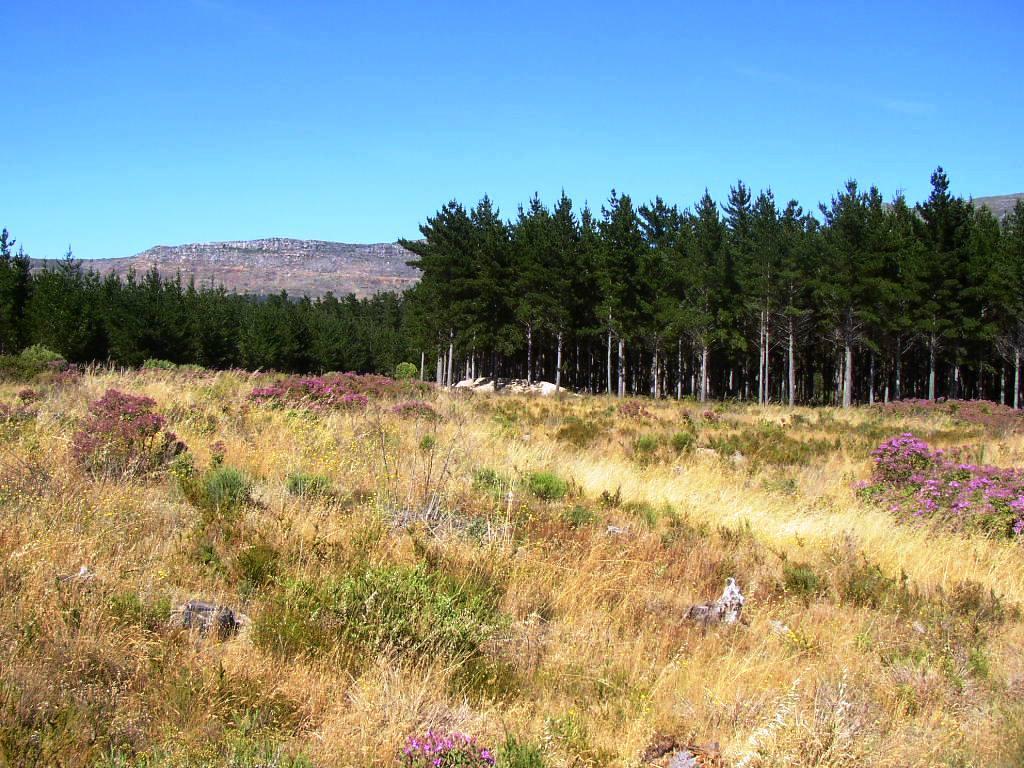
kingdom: Plantae
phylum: Tracheophyta
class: Magnoliopsida
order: Geraniales
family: Geraniaceae
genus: Pelargonium
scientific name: Pelargonium cucullatum
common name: Tree pelargonium
